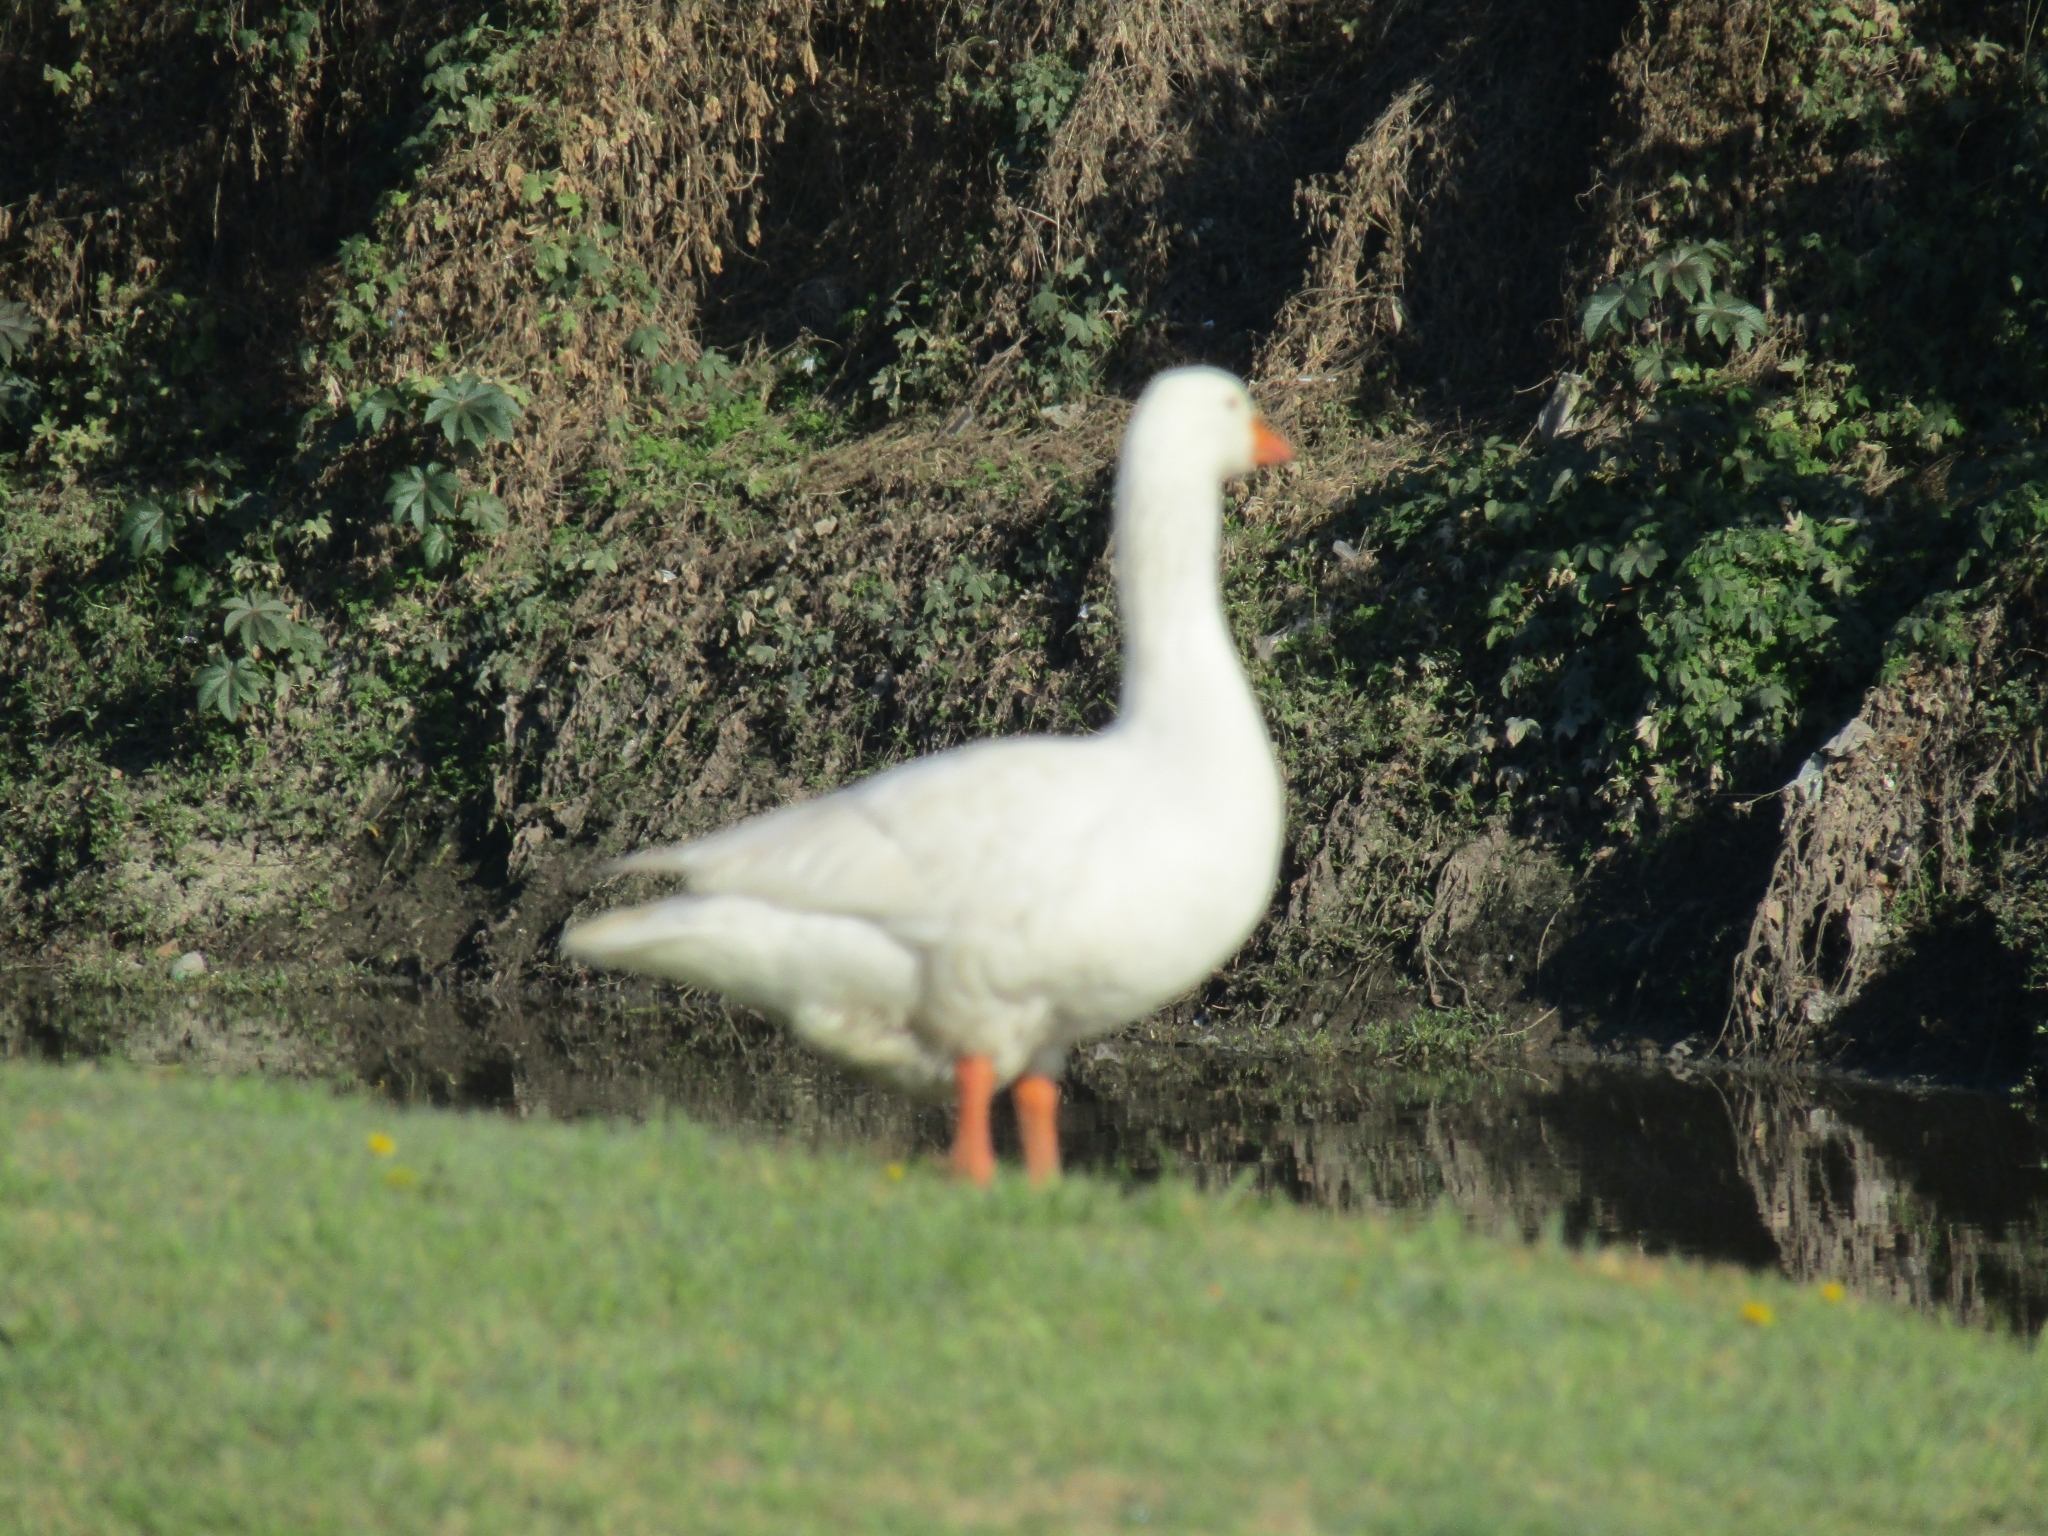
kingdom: Animalia
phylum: Chordata
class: Aves
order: Anseriformes
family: Anatidae
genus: Anser
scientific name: Anser anser
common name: Greylag goose
